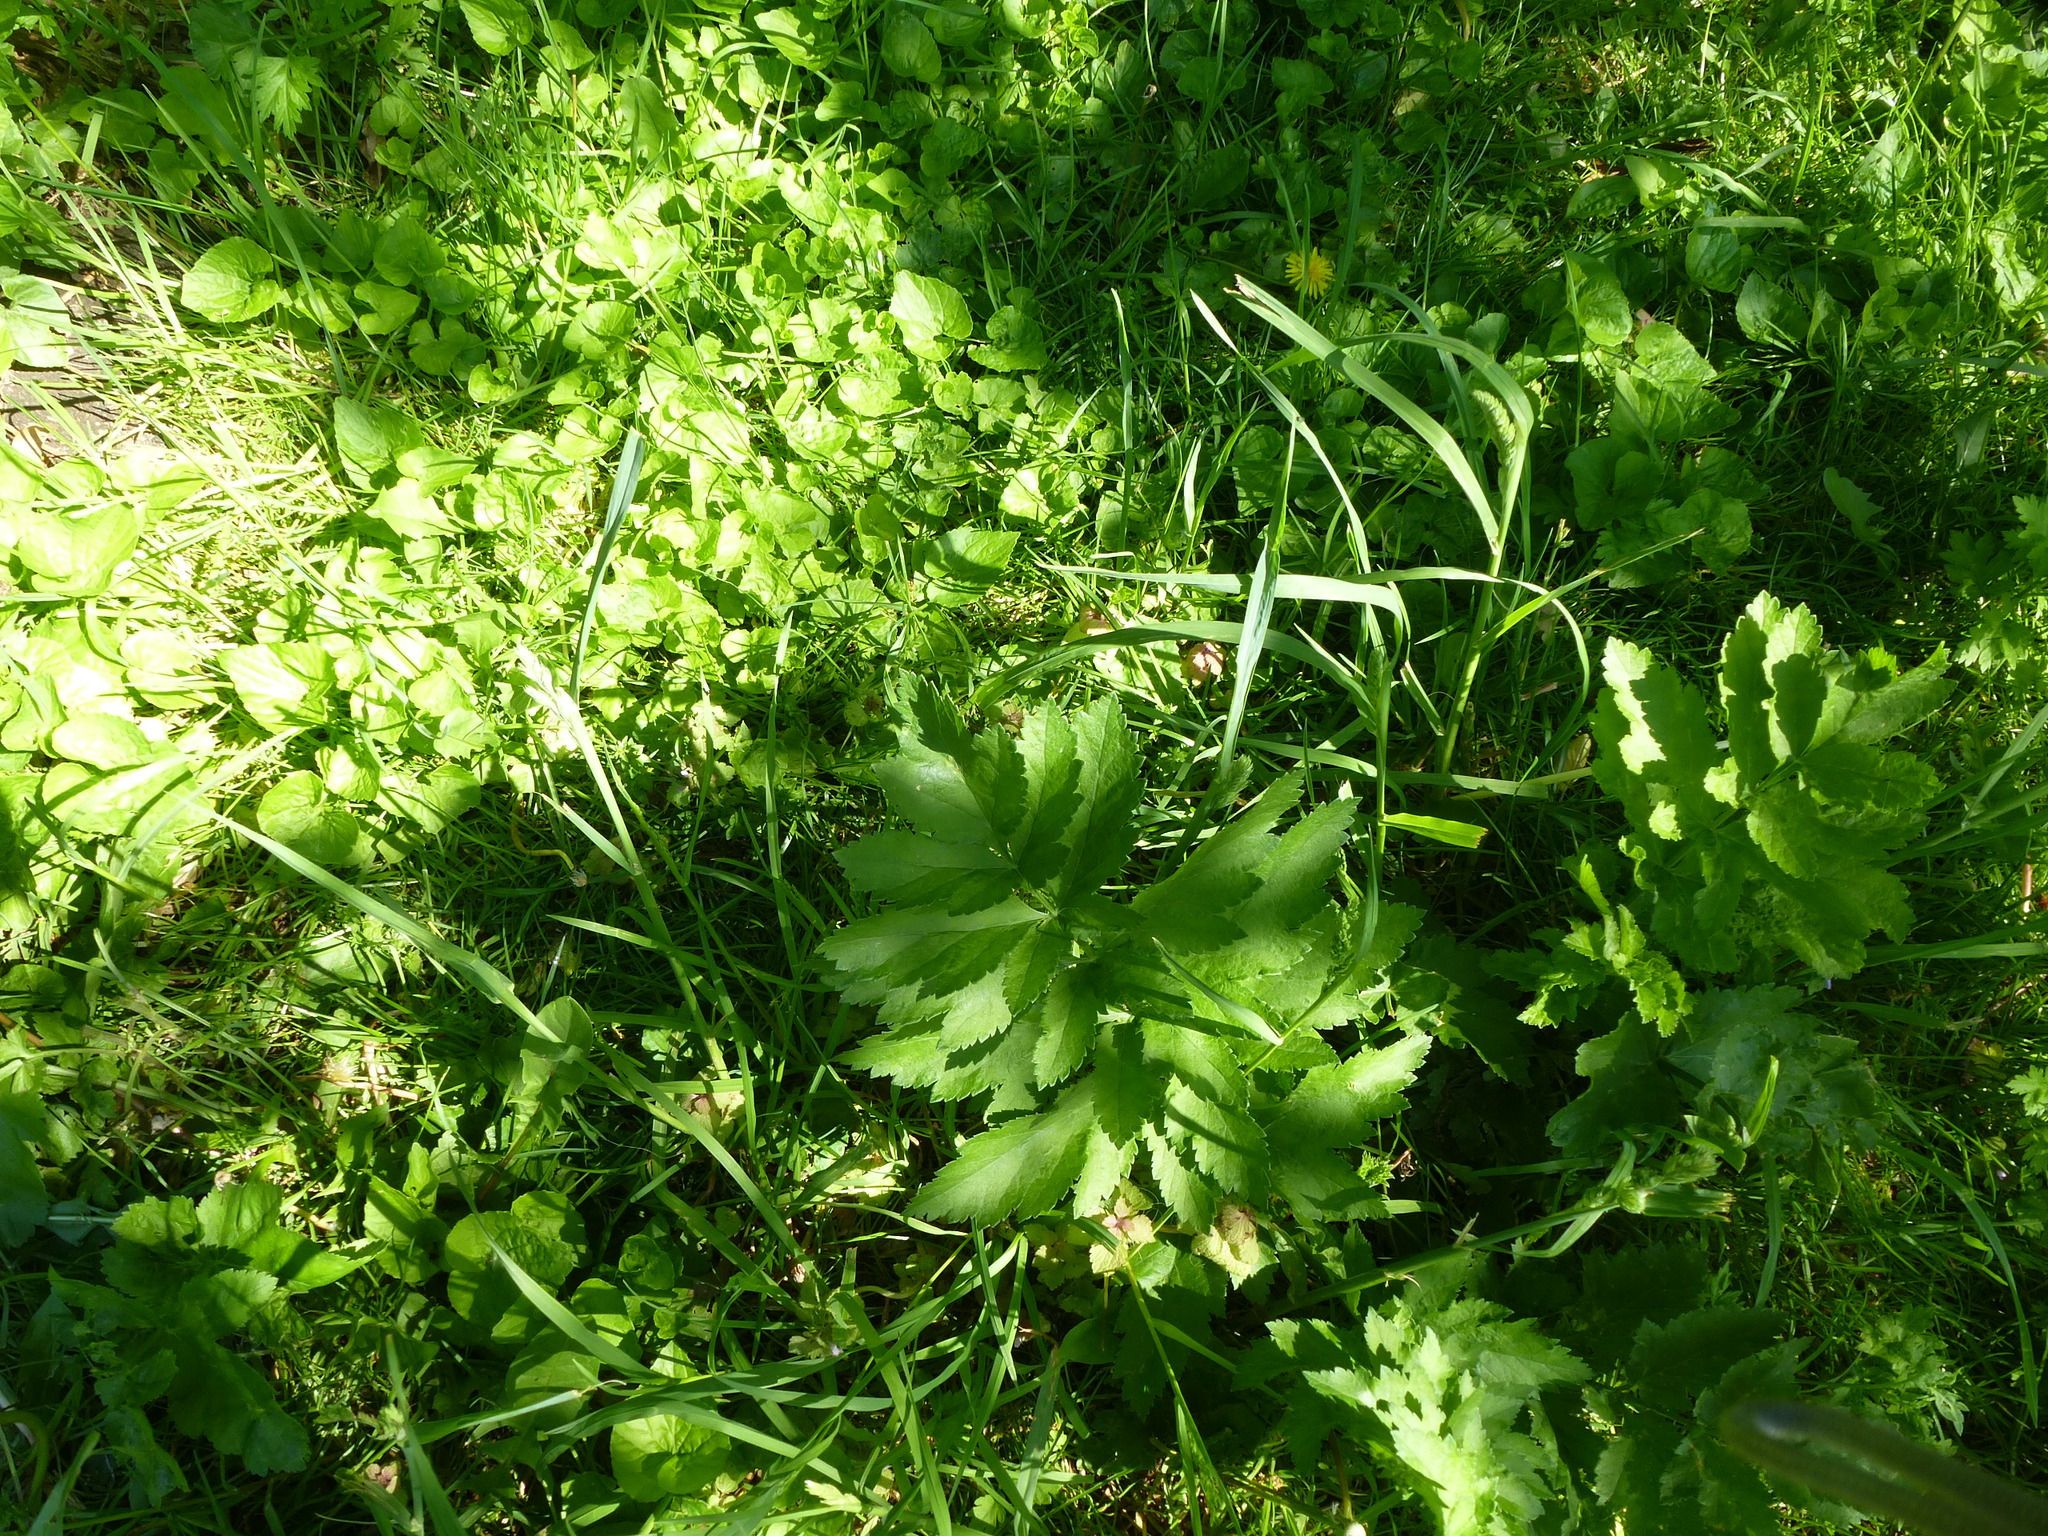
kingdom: Plantae
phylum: Tracheophyta
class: Magnoliopsida
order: Apiales
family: Apiaceae
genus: Pastinaca
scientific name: Pastinaca sativa
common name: Wild parsnip
